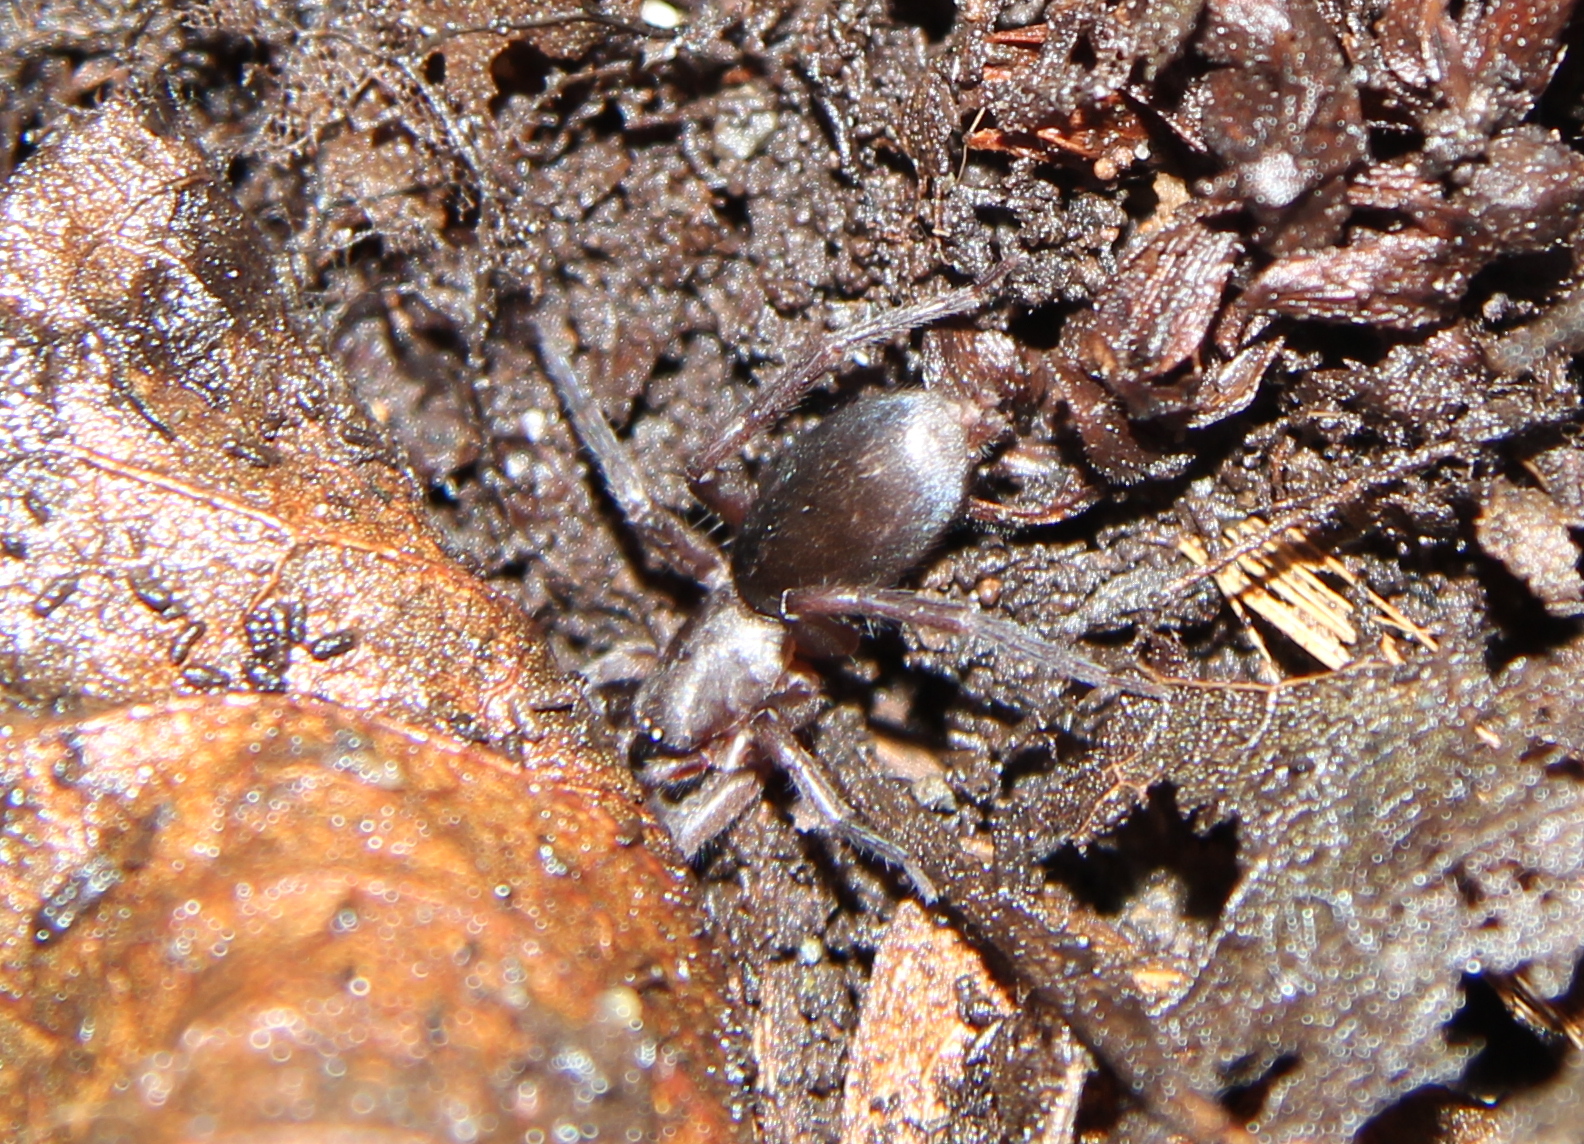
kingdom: Animalia
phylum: Arthropoda
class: Arachnida
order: Araneae
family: Gnaphosidae
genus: Hypodrassodes
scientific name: Hypodrassodes maoricus
